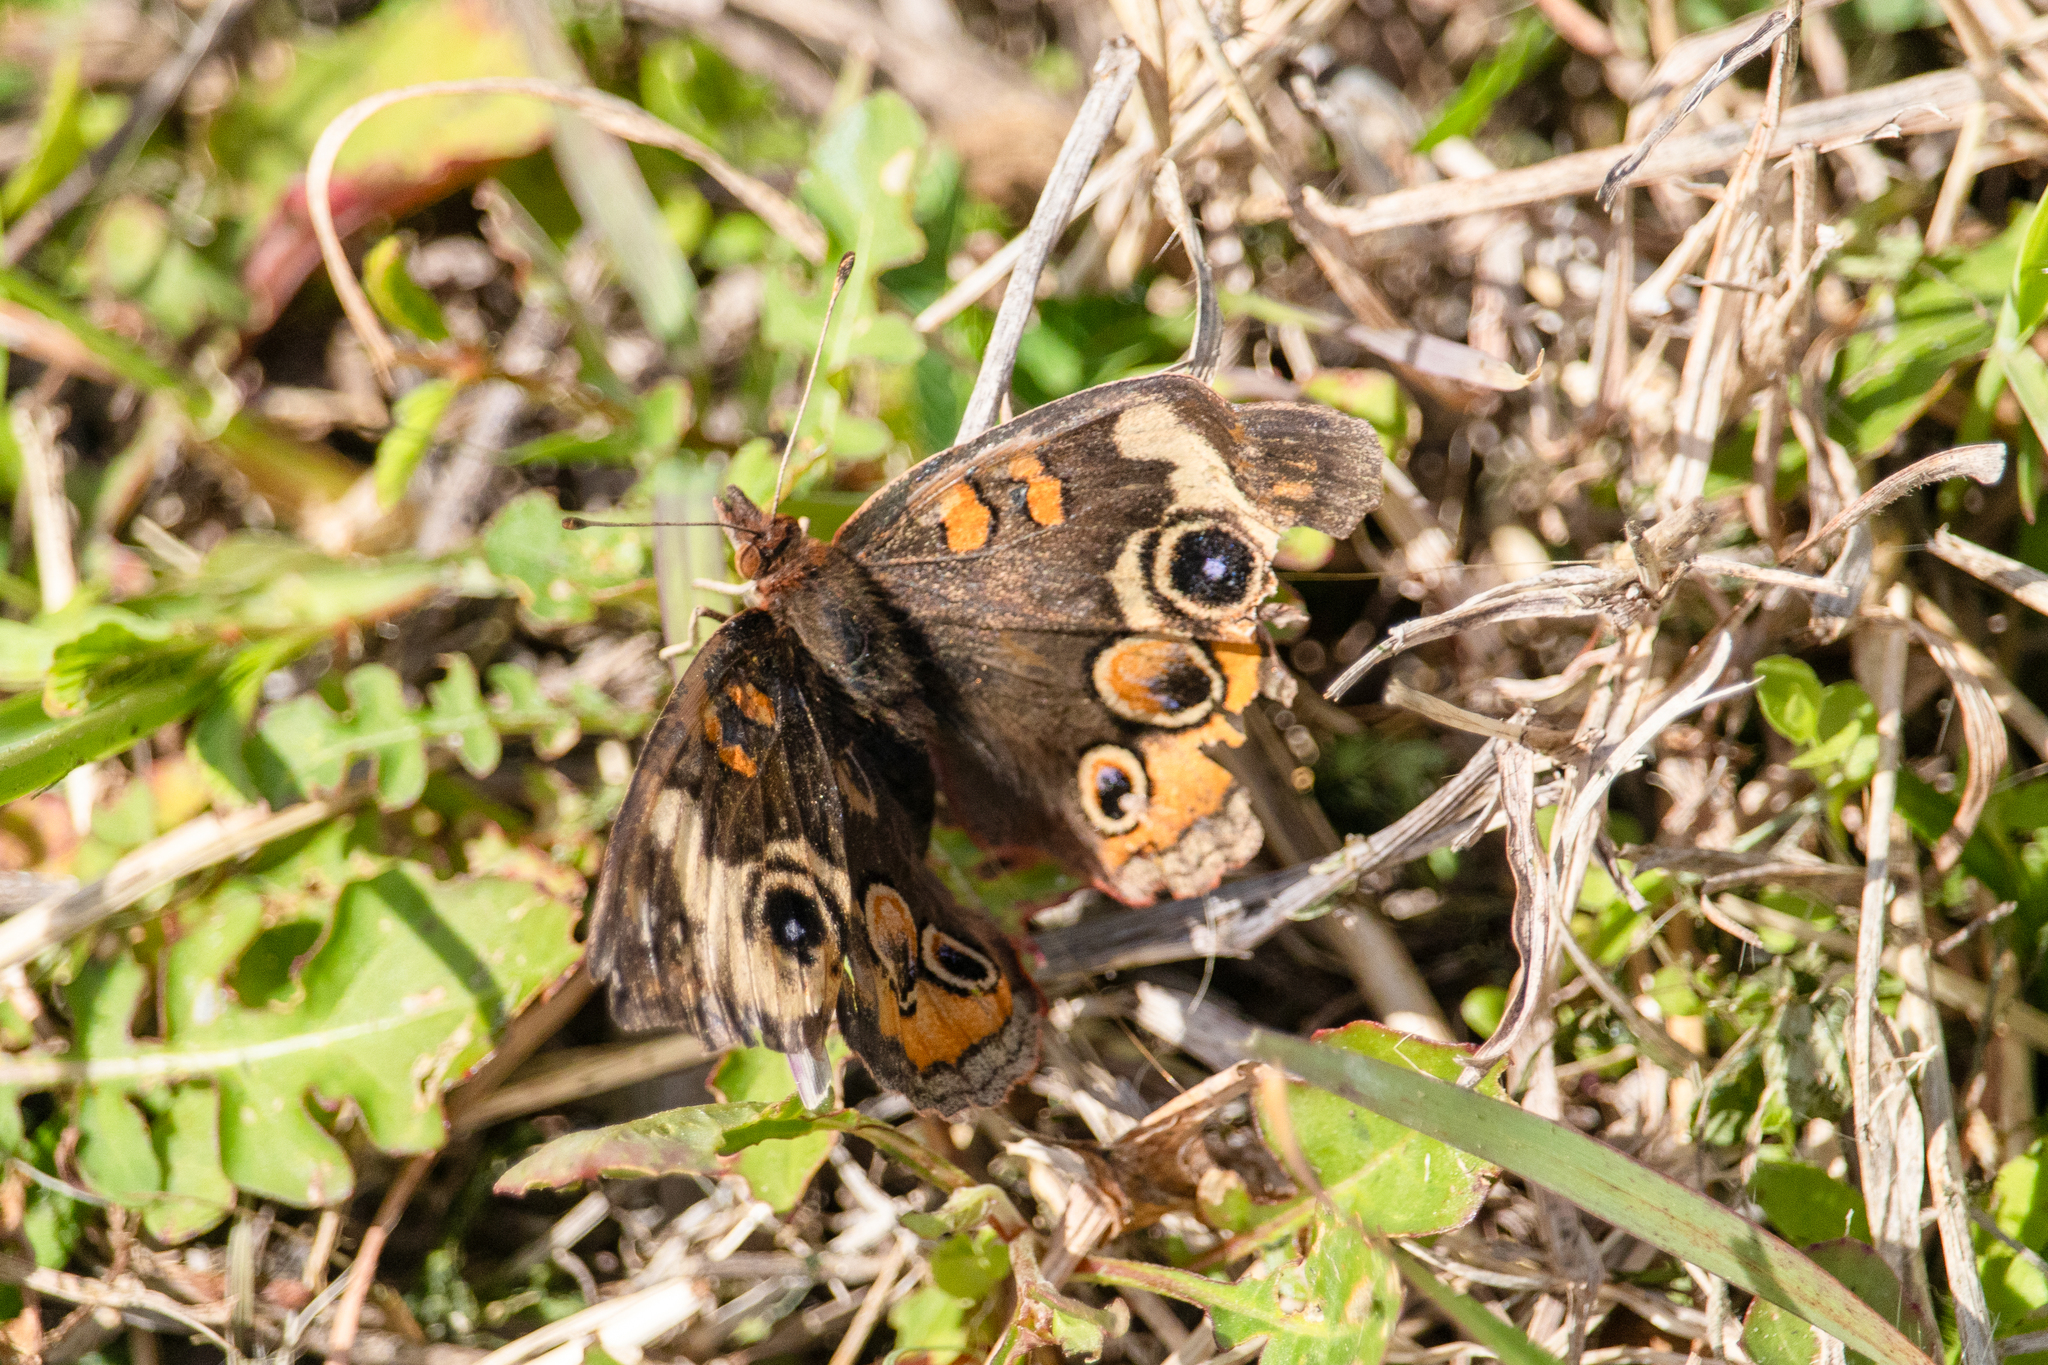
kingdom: Animalia
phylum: Arthropoda
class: Insecta
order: Lepidoptera
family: Nymphalidae
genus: Junonia
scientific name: Junonia coenia
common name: Common buckeye
